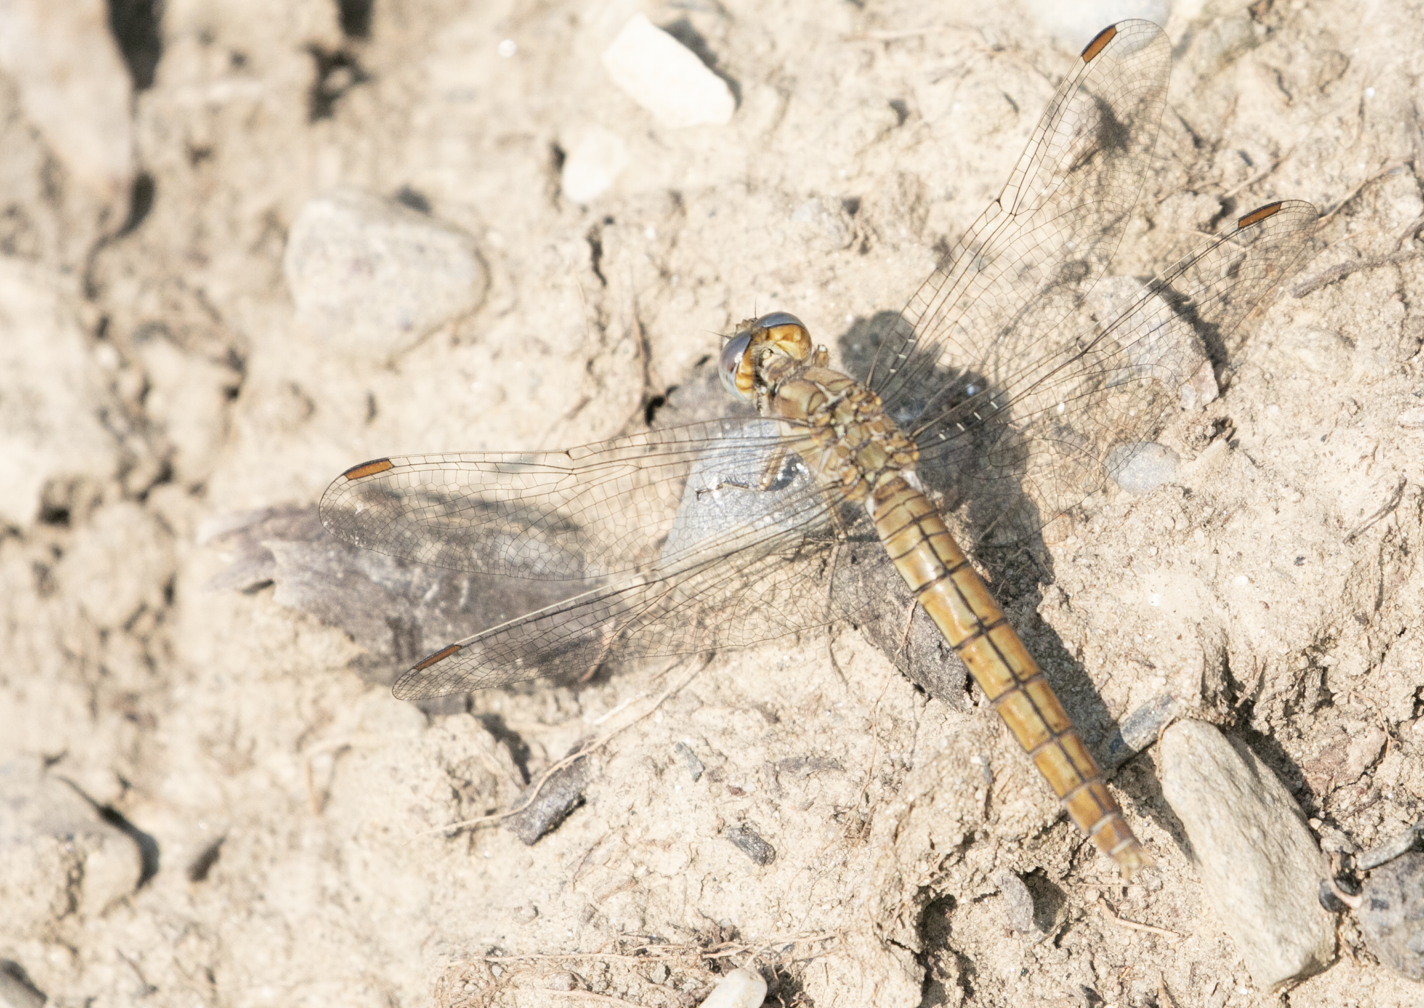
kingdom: Animalia
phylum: Arthropoda
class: Insecta
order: Odonata
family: Libellulidae
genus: Orthetrum
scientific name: Orthetrum brunneum
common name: Southern skimmer
